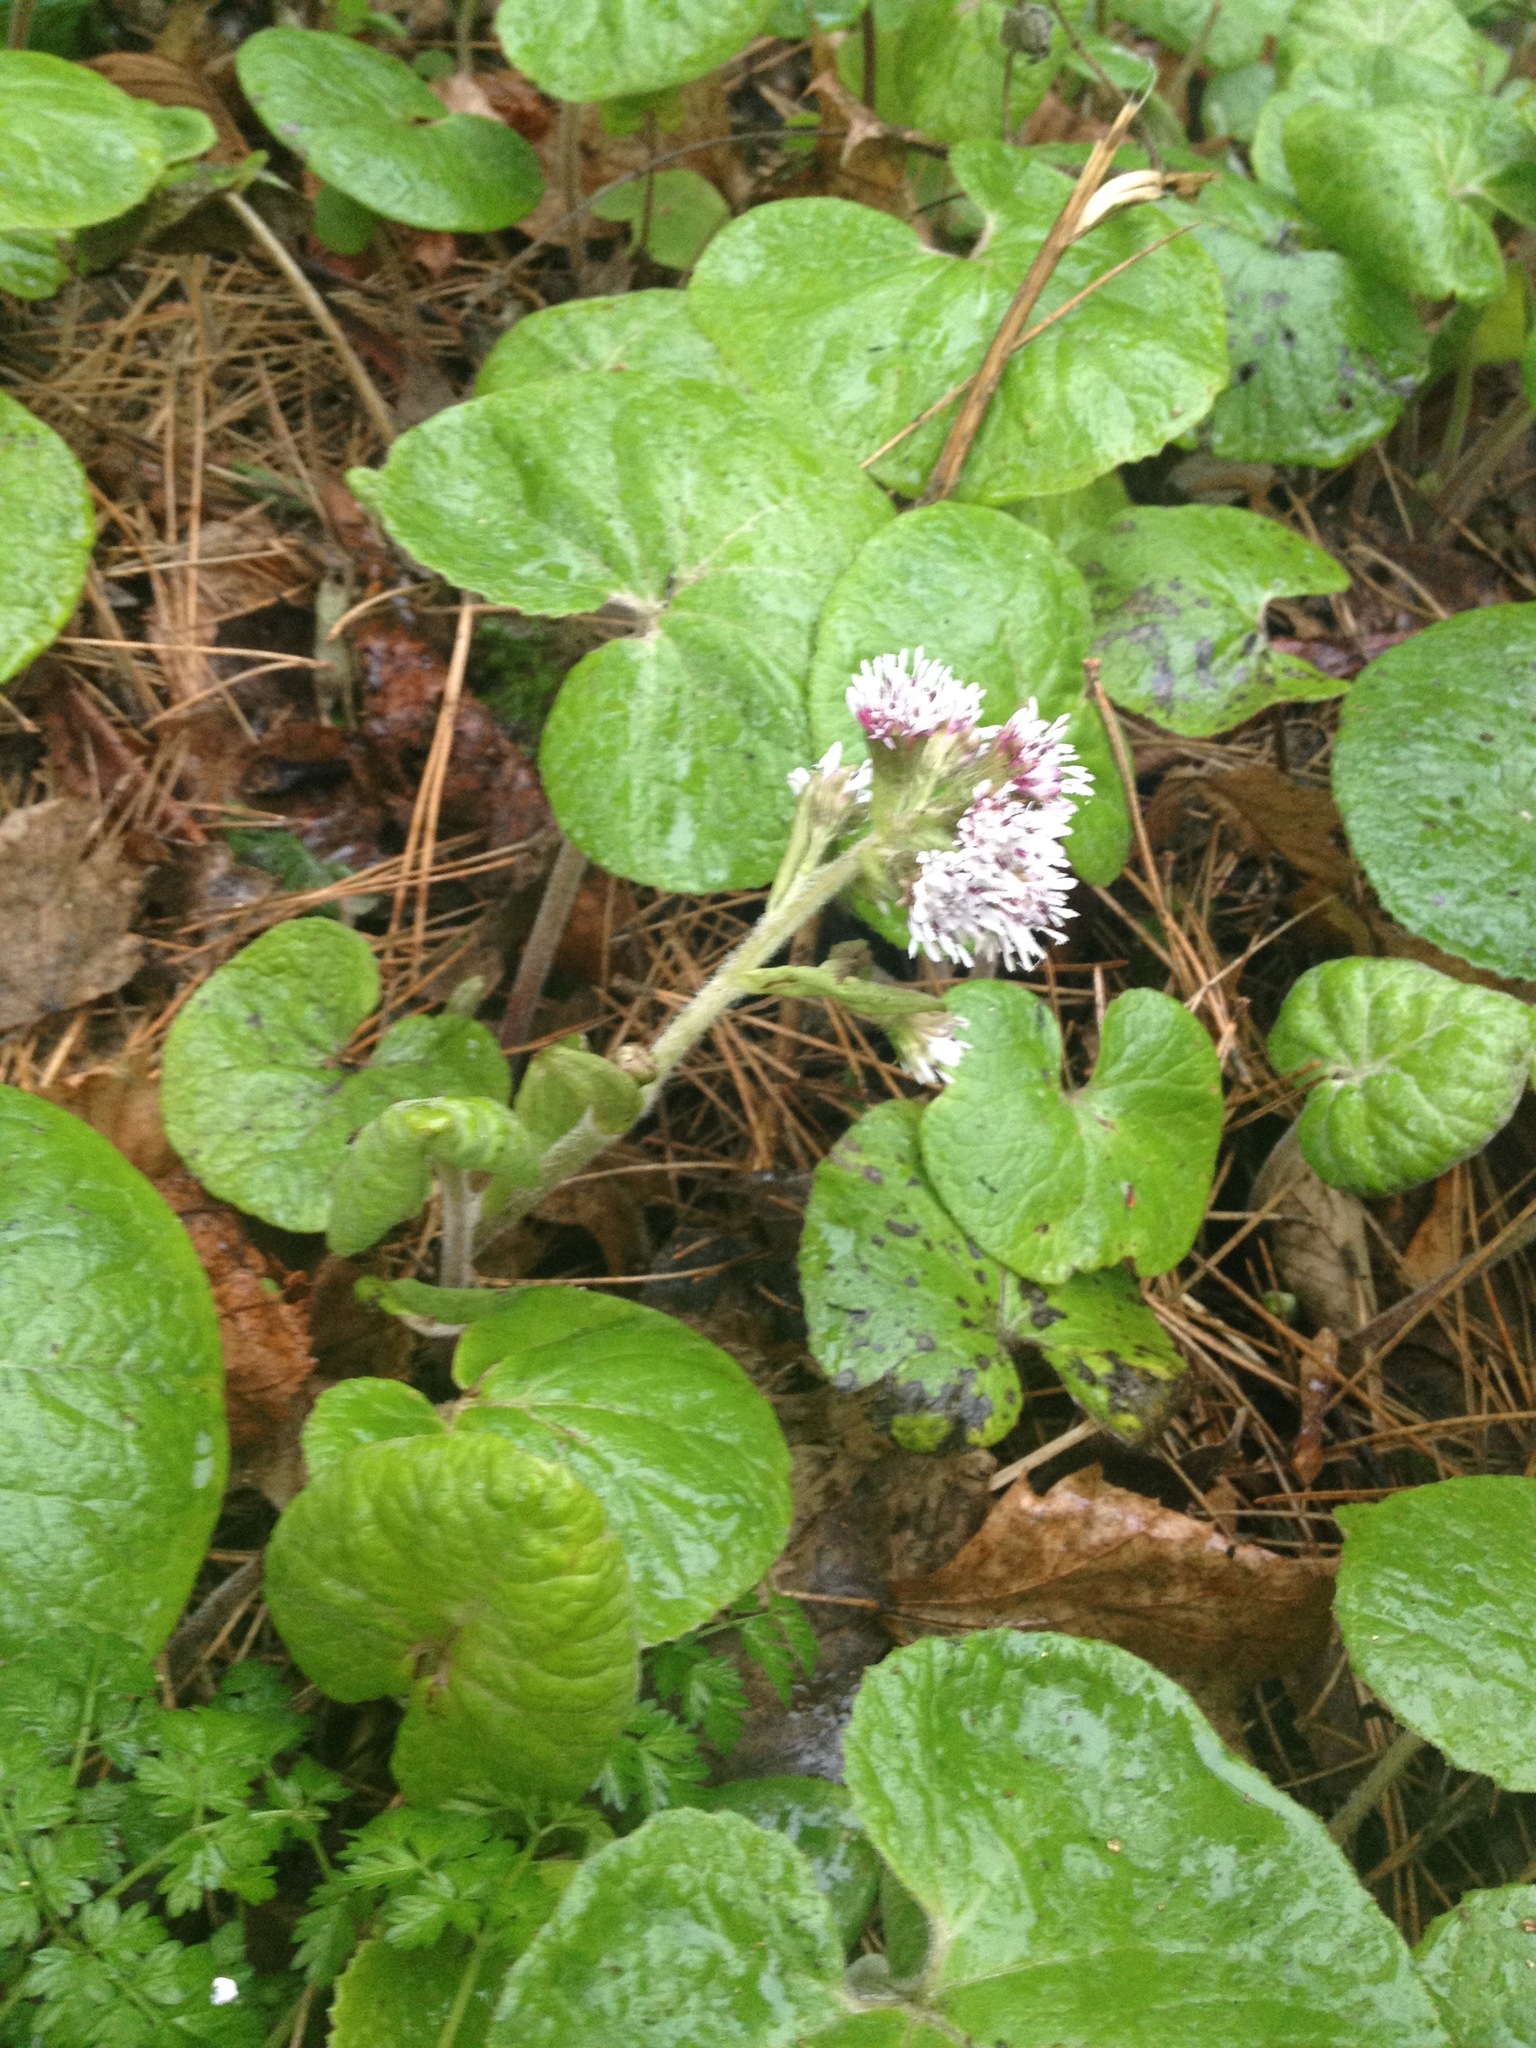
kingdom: Plantae
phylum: Tracheophyta
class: Magnoliopsida
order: Asterales
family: Asteraceae
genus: Petasites
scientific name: Petasites pyrenaicus
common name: Winter heliotrope
